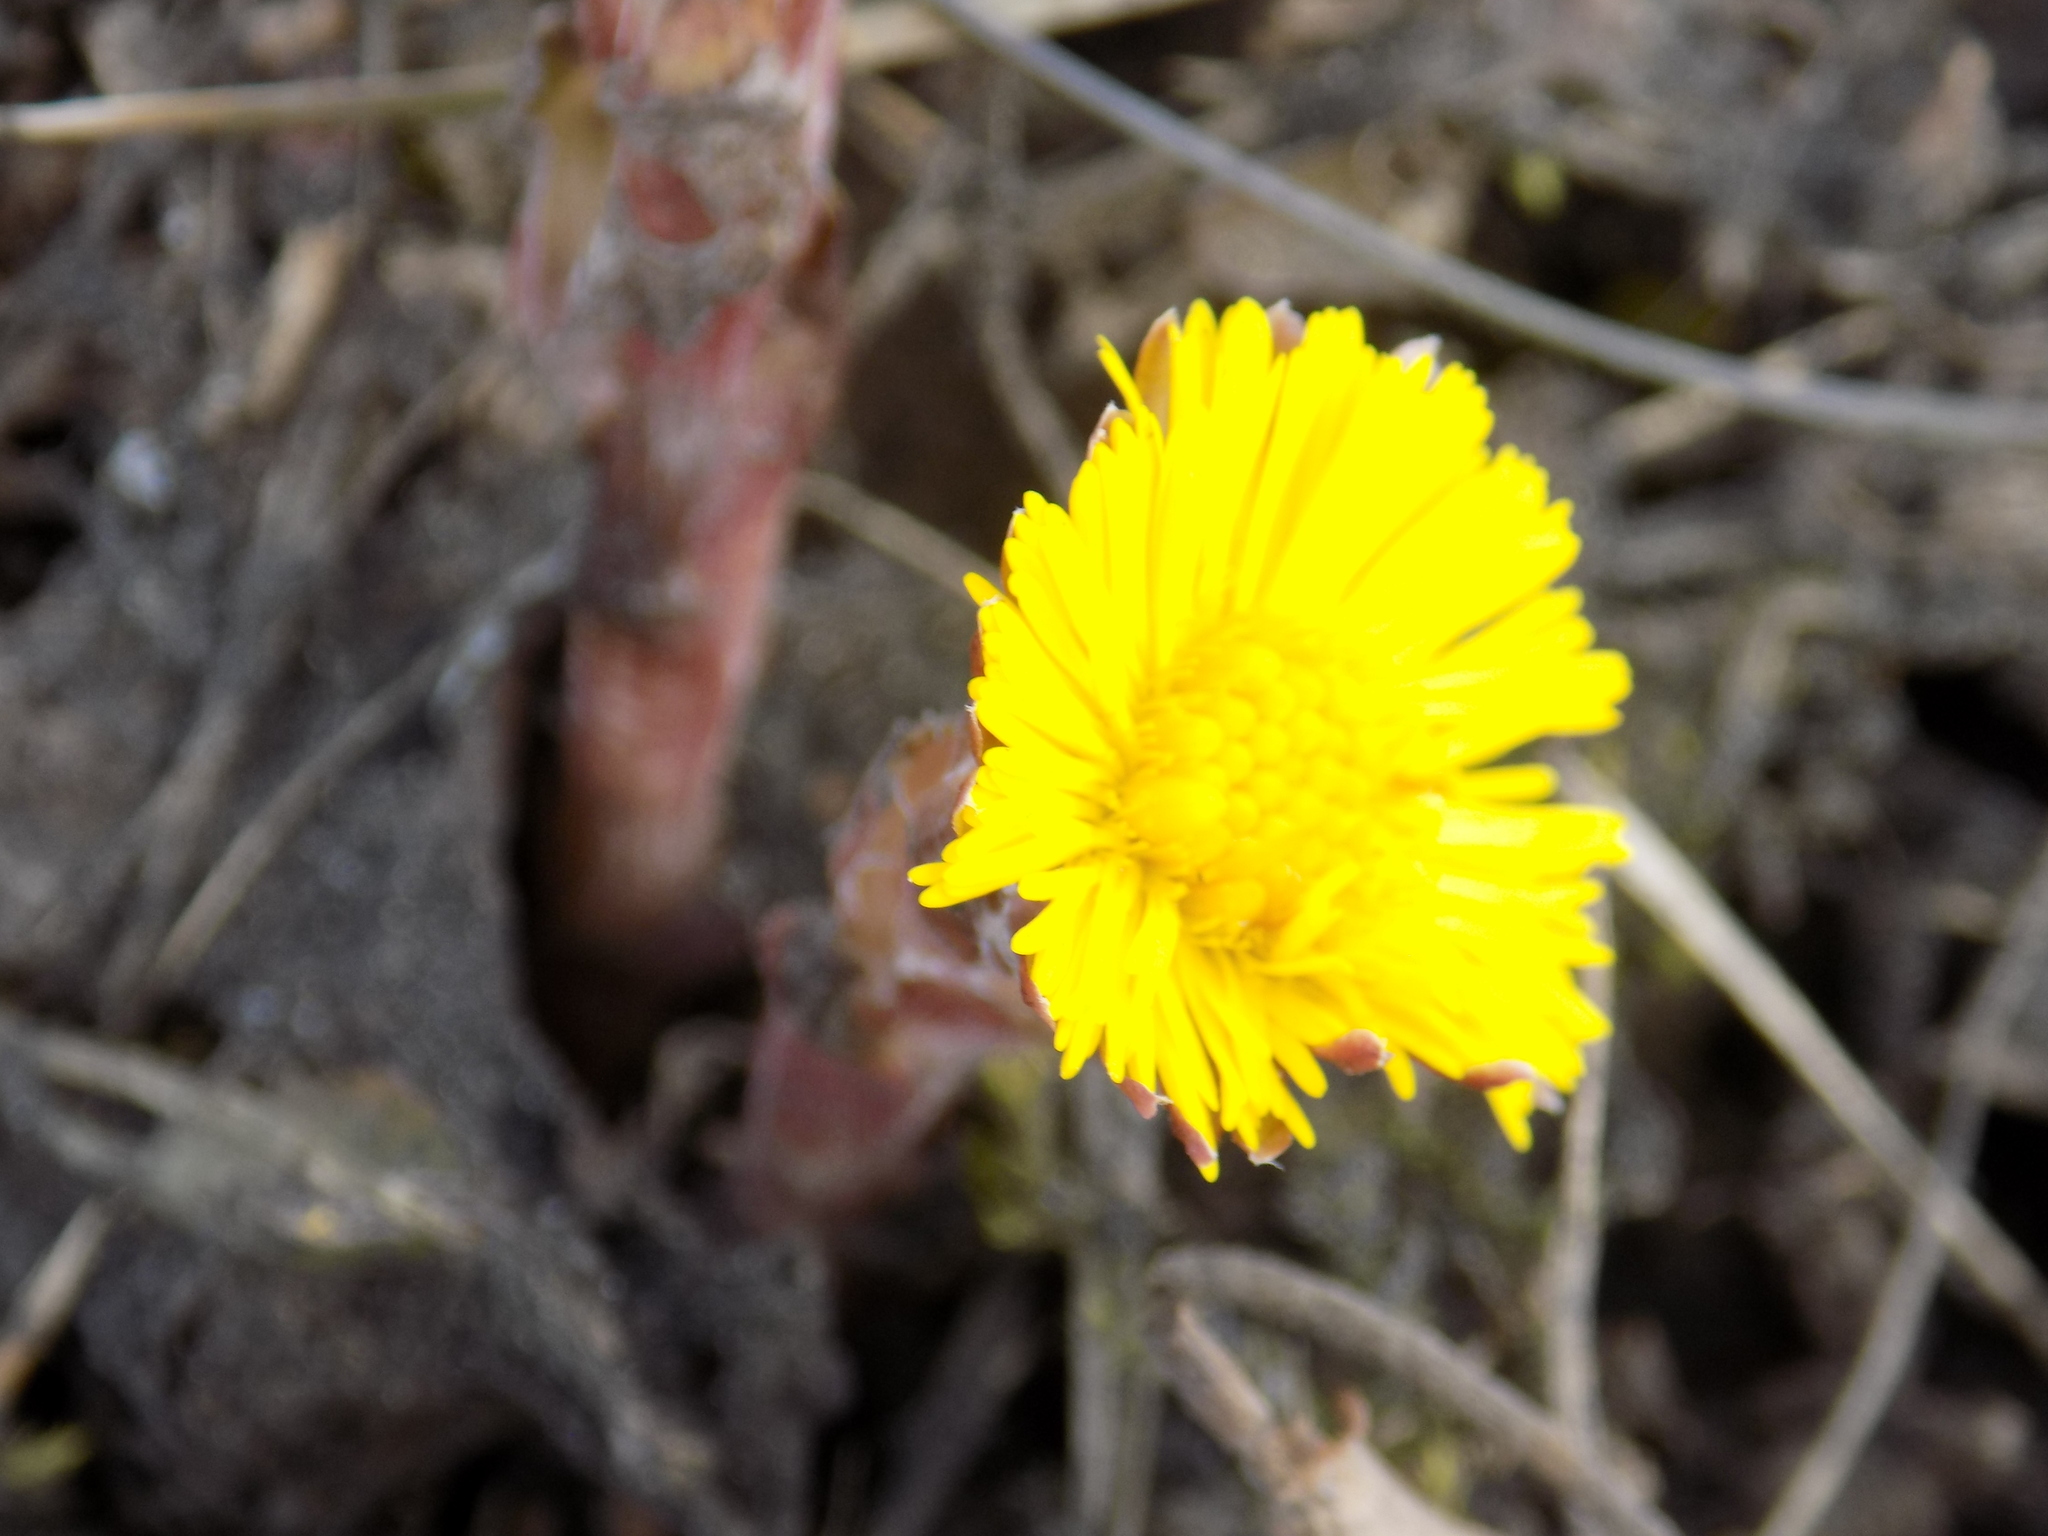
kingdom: Plantae
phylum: Tracheophyta
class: Magnoliopsida
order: Asterales
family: Asteraceae
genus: Tussilago
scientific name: Tussilago farfara
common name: Coltsfoot
